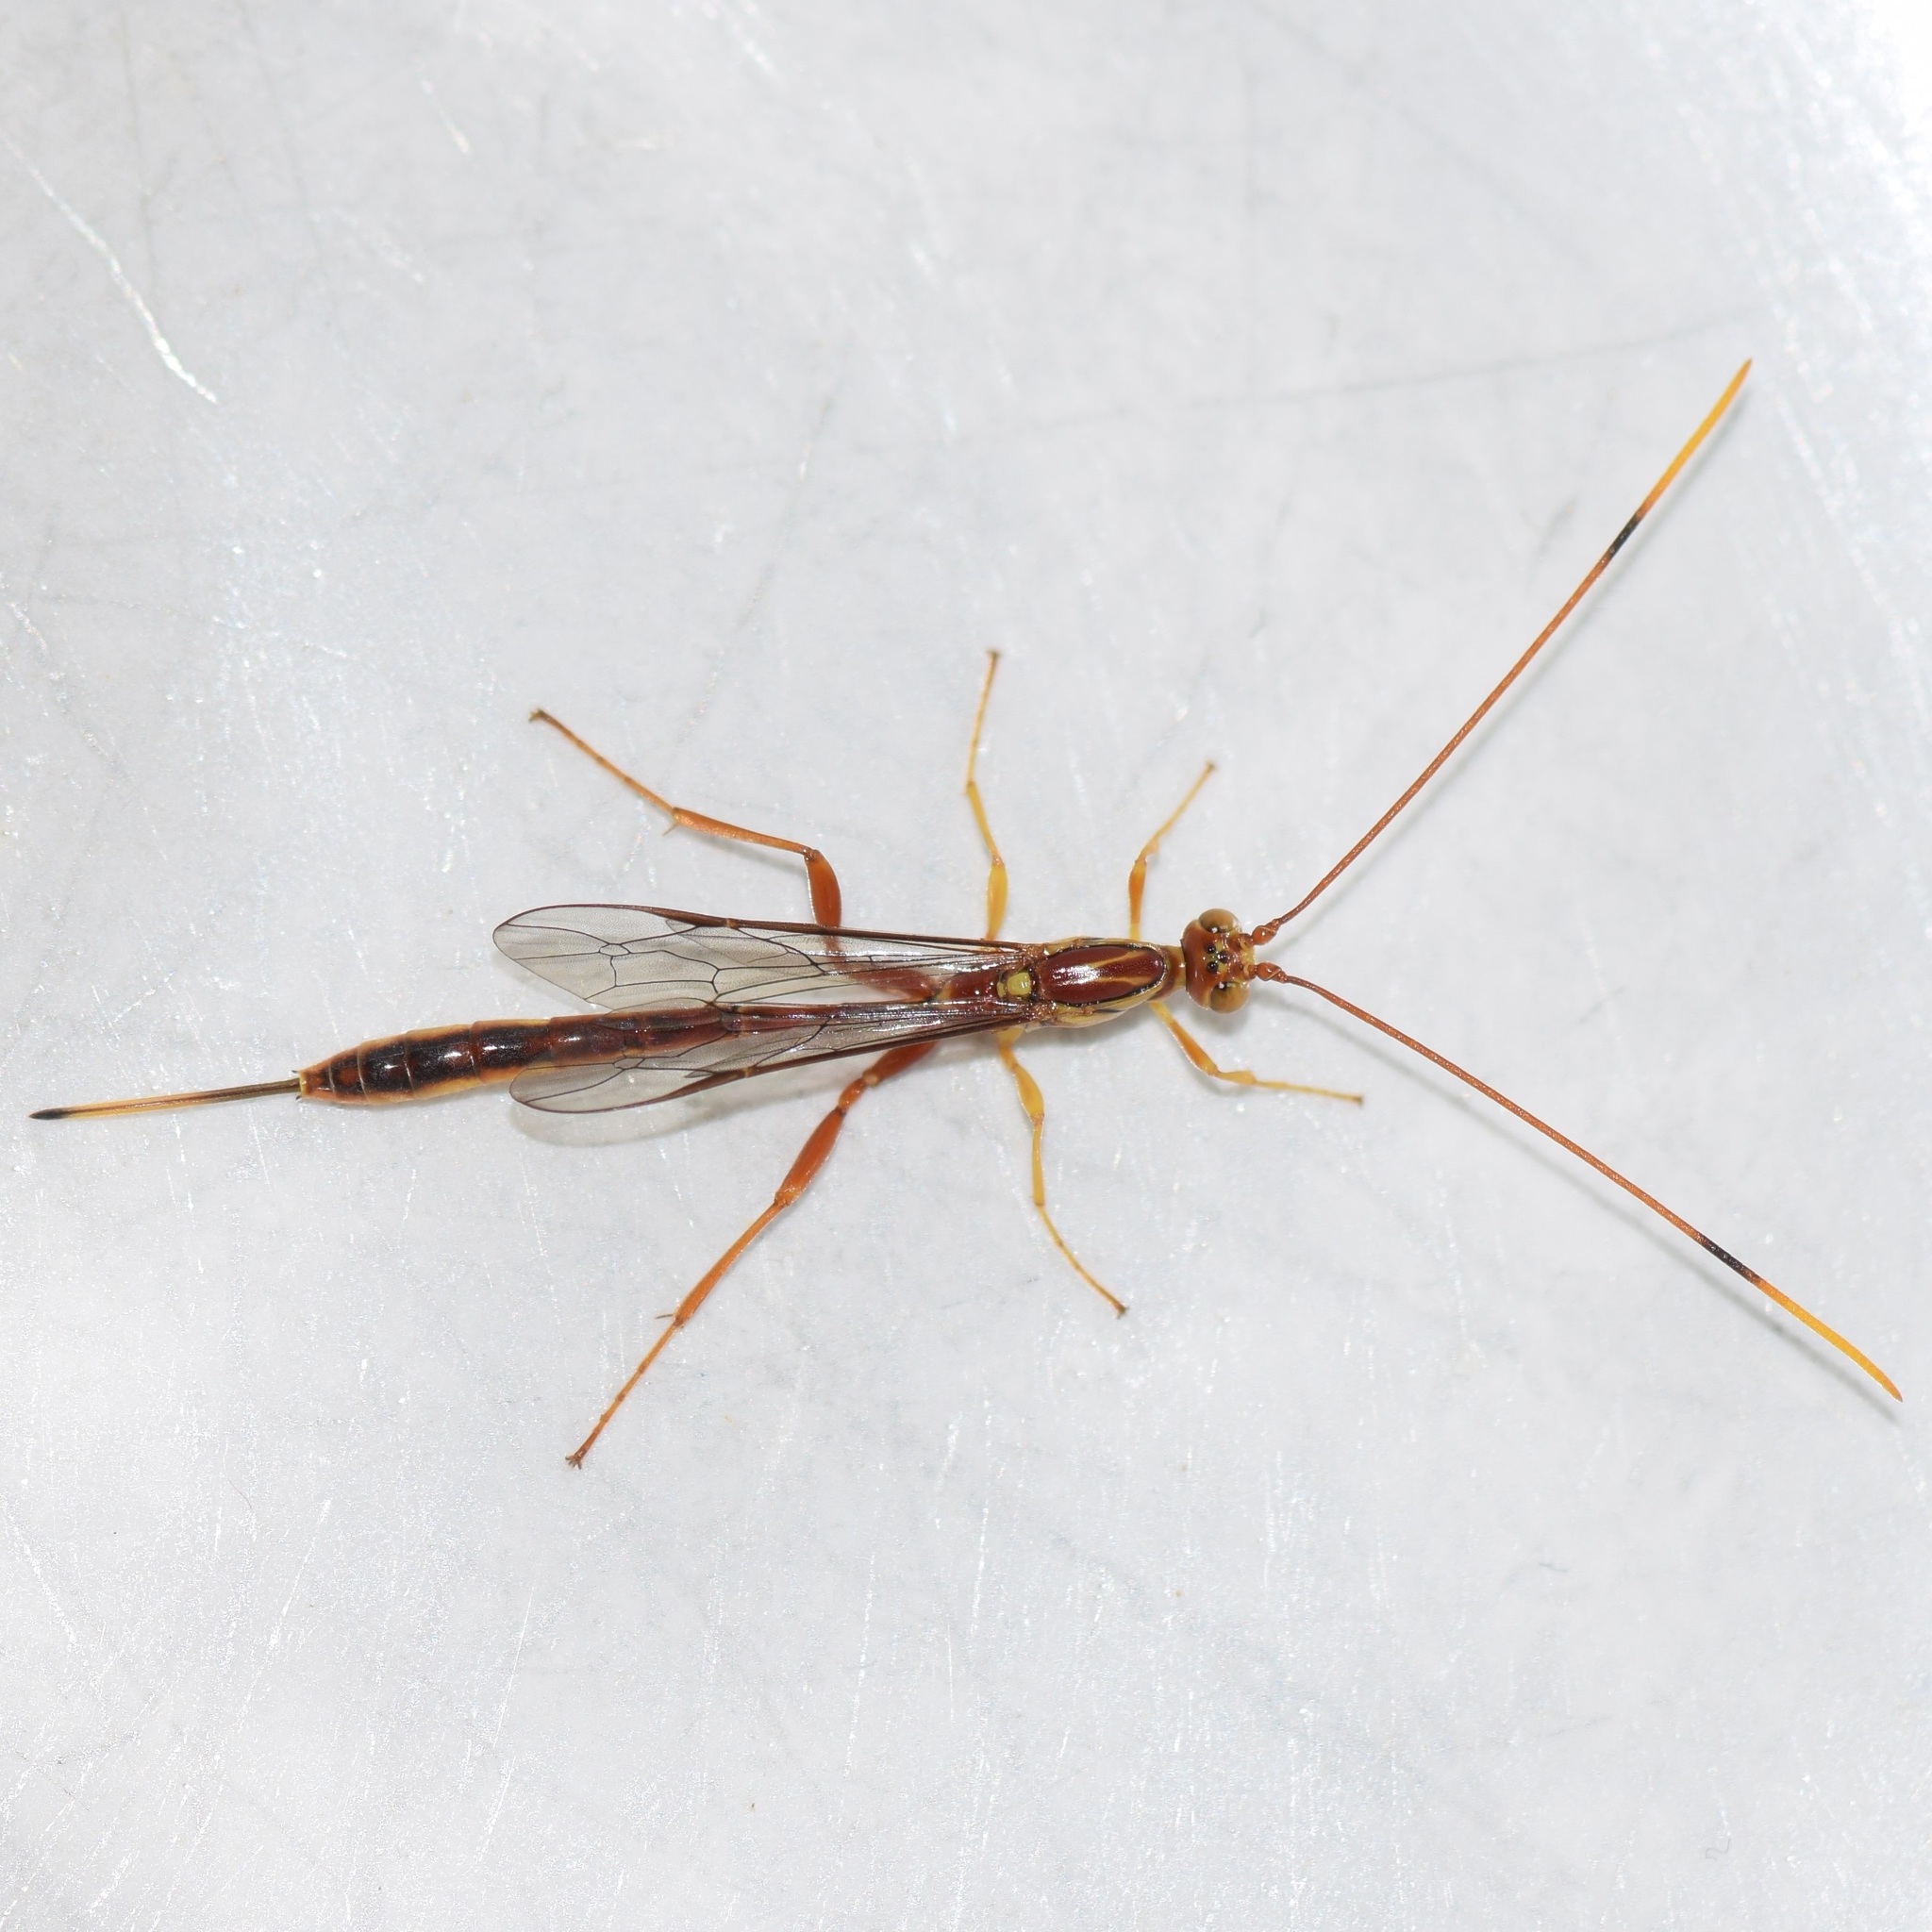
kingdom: Animalia
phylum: Arthropoda
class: Insecta
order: Hymenoptera
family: Ichneumonidae
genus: Grotea
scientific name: Grotea anguina
